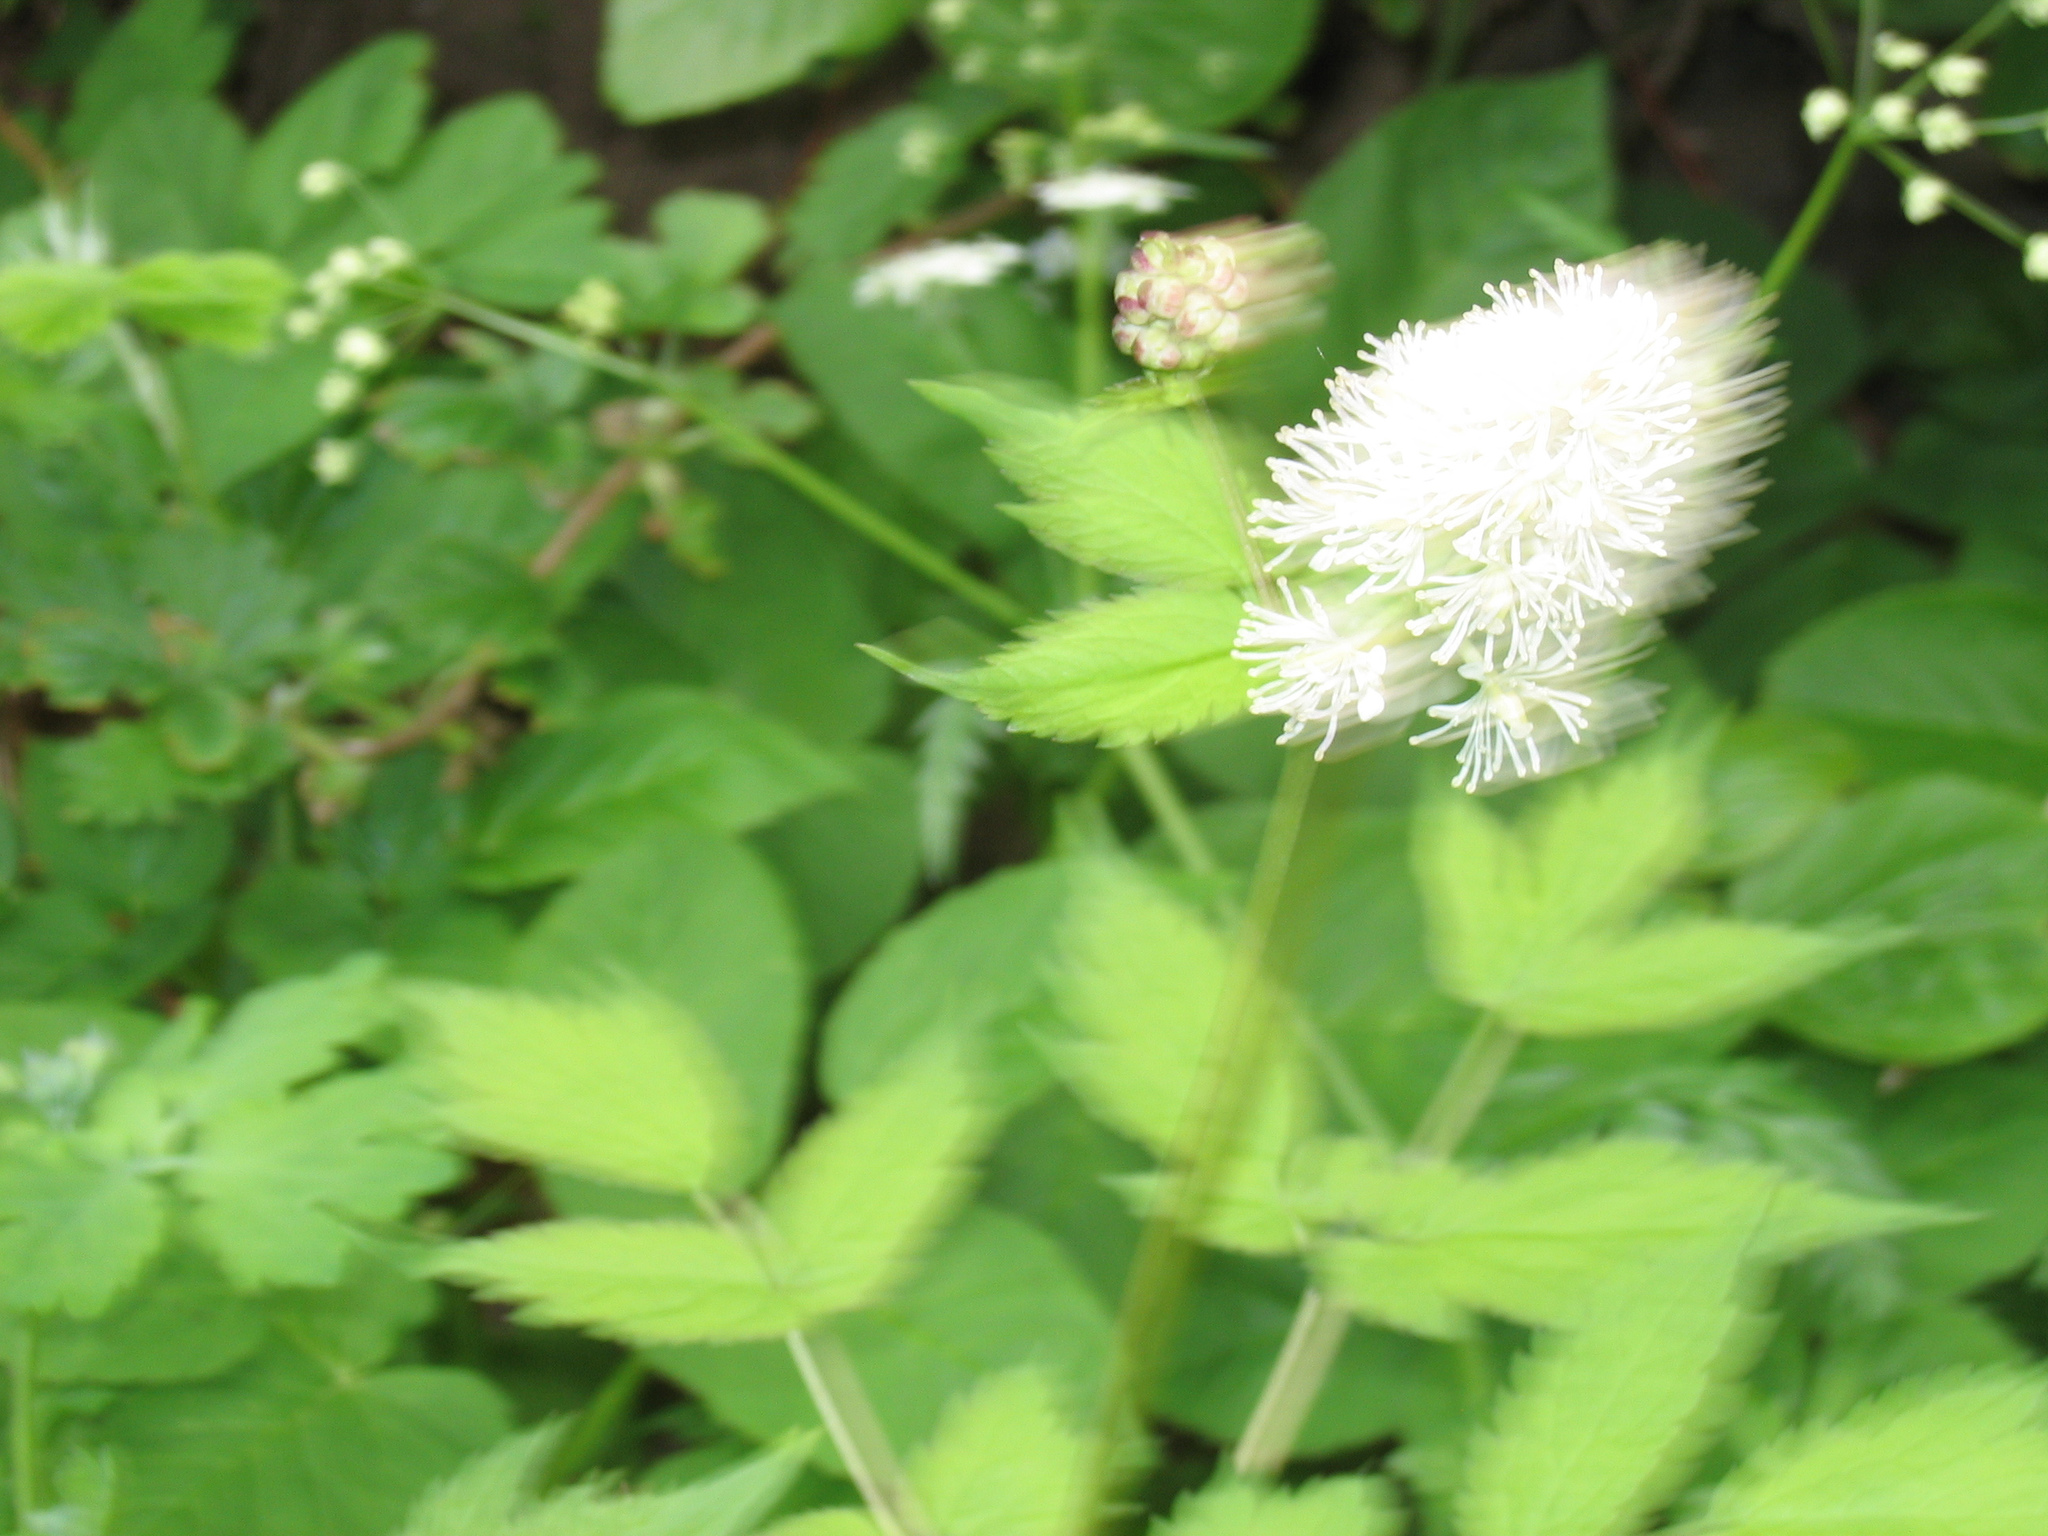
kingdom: Plantae
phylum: Tracheophyta
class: Magnoliopsida
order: Ranunculales
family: Ranunculaceae
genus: Actaea
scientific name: Actaea spicata
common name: Baneberry
